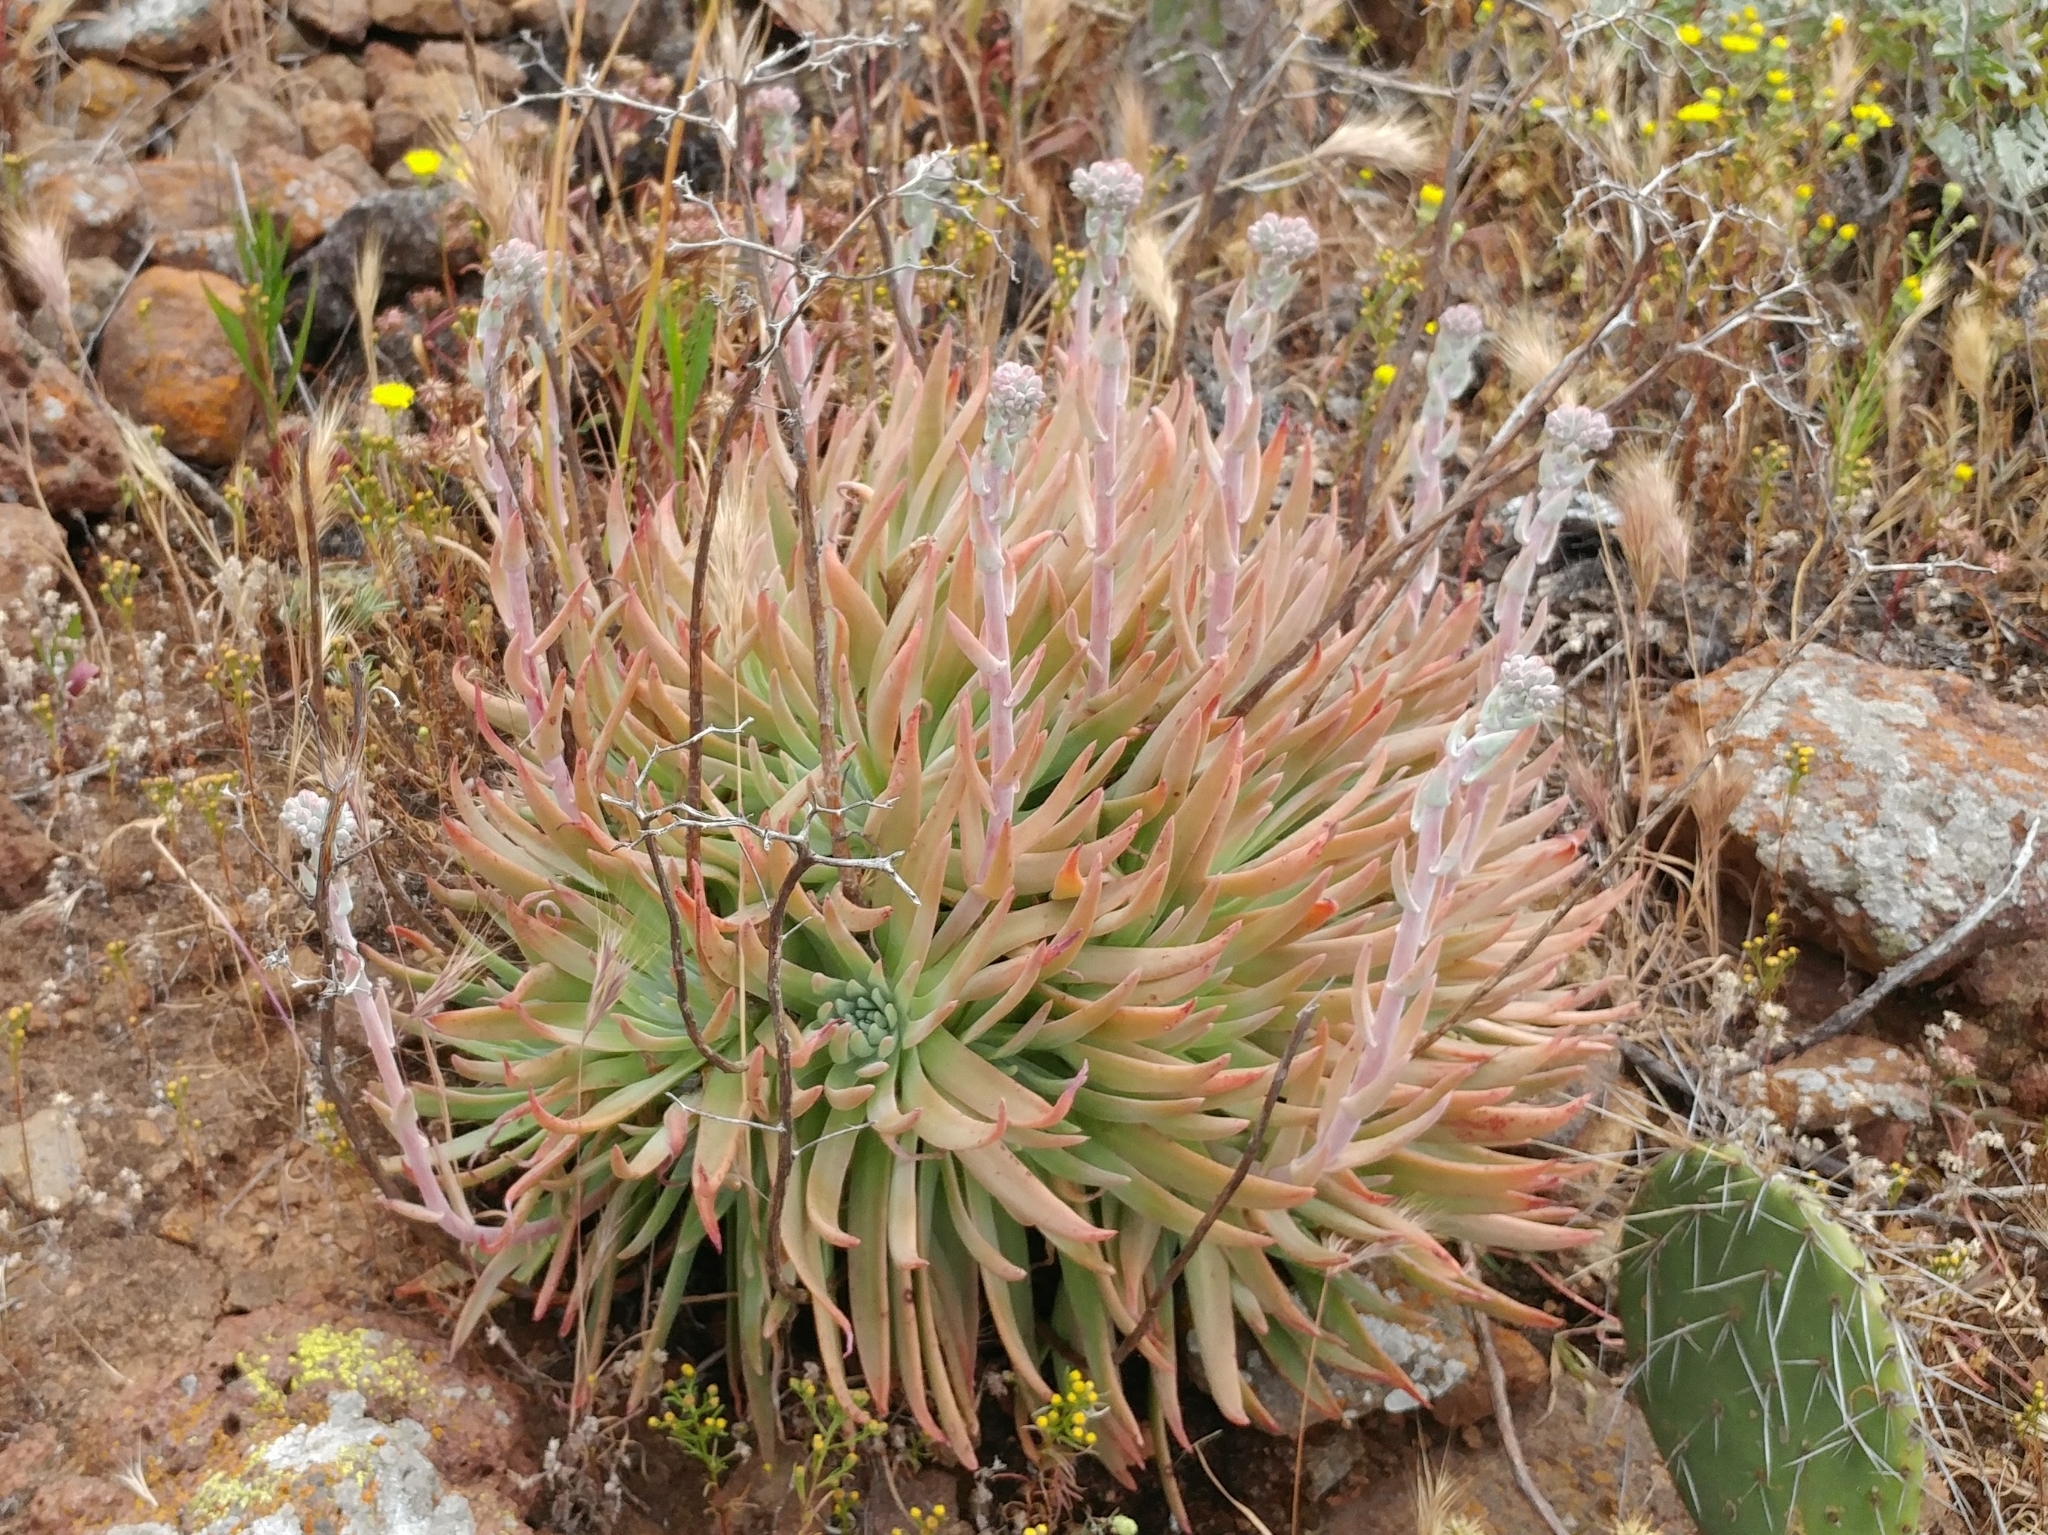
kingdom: Plantae
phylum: Tracheophyta
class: Magnoliopsida
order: Saxifragales
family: Crassulaceae
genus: Dudleya
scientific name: Dudleya virens
